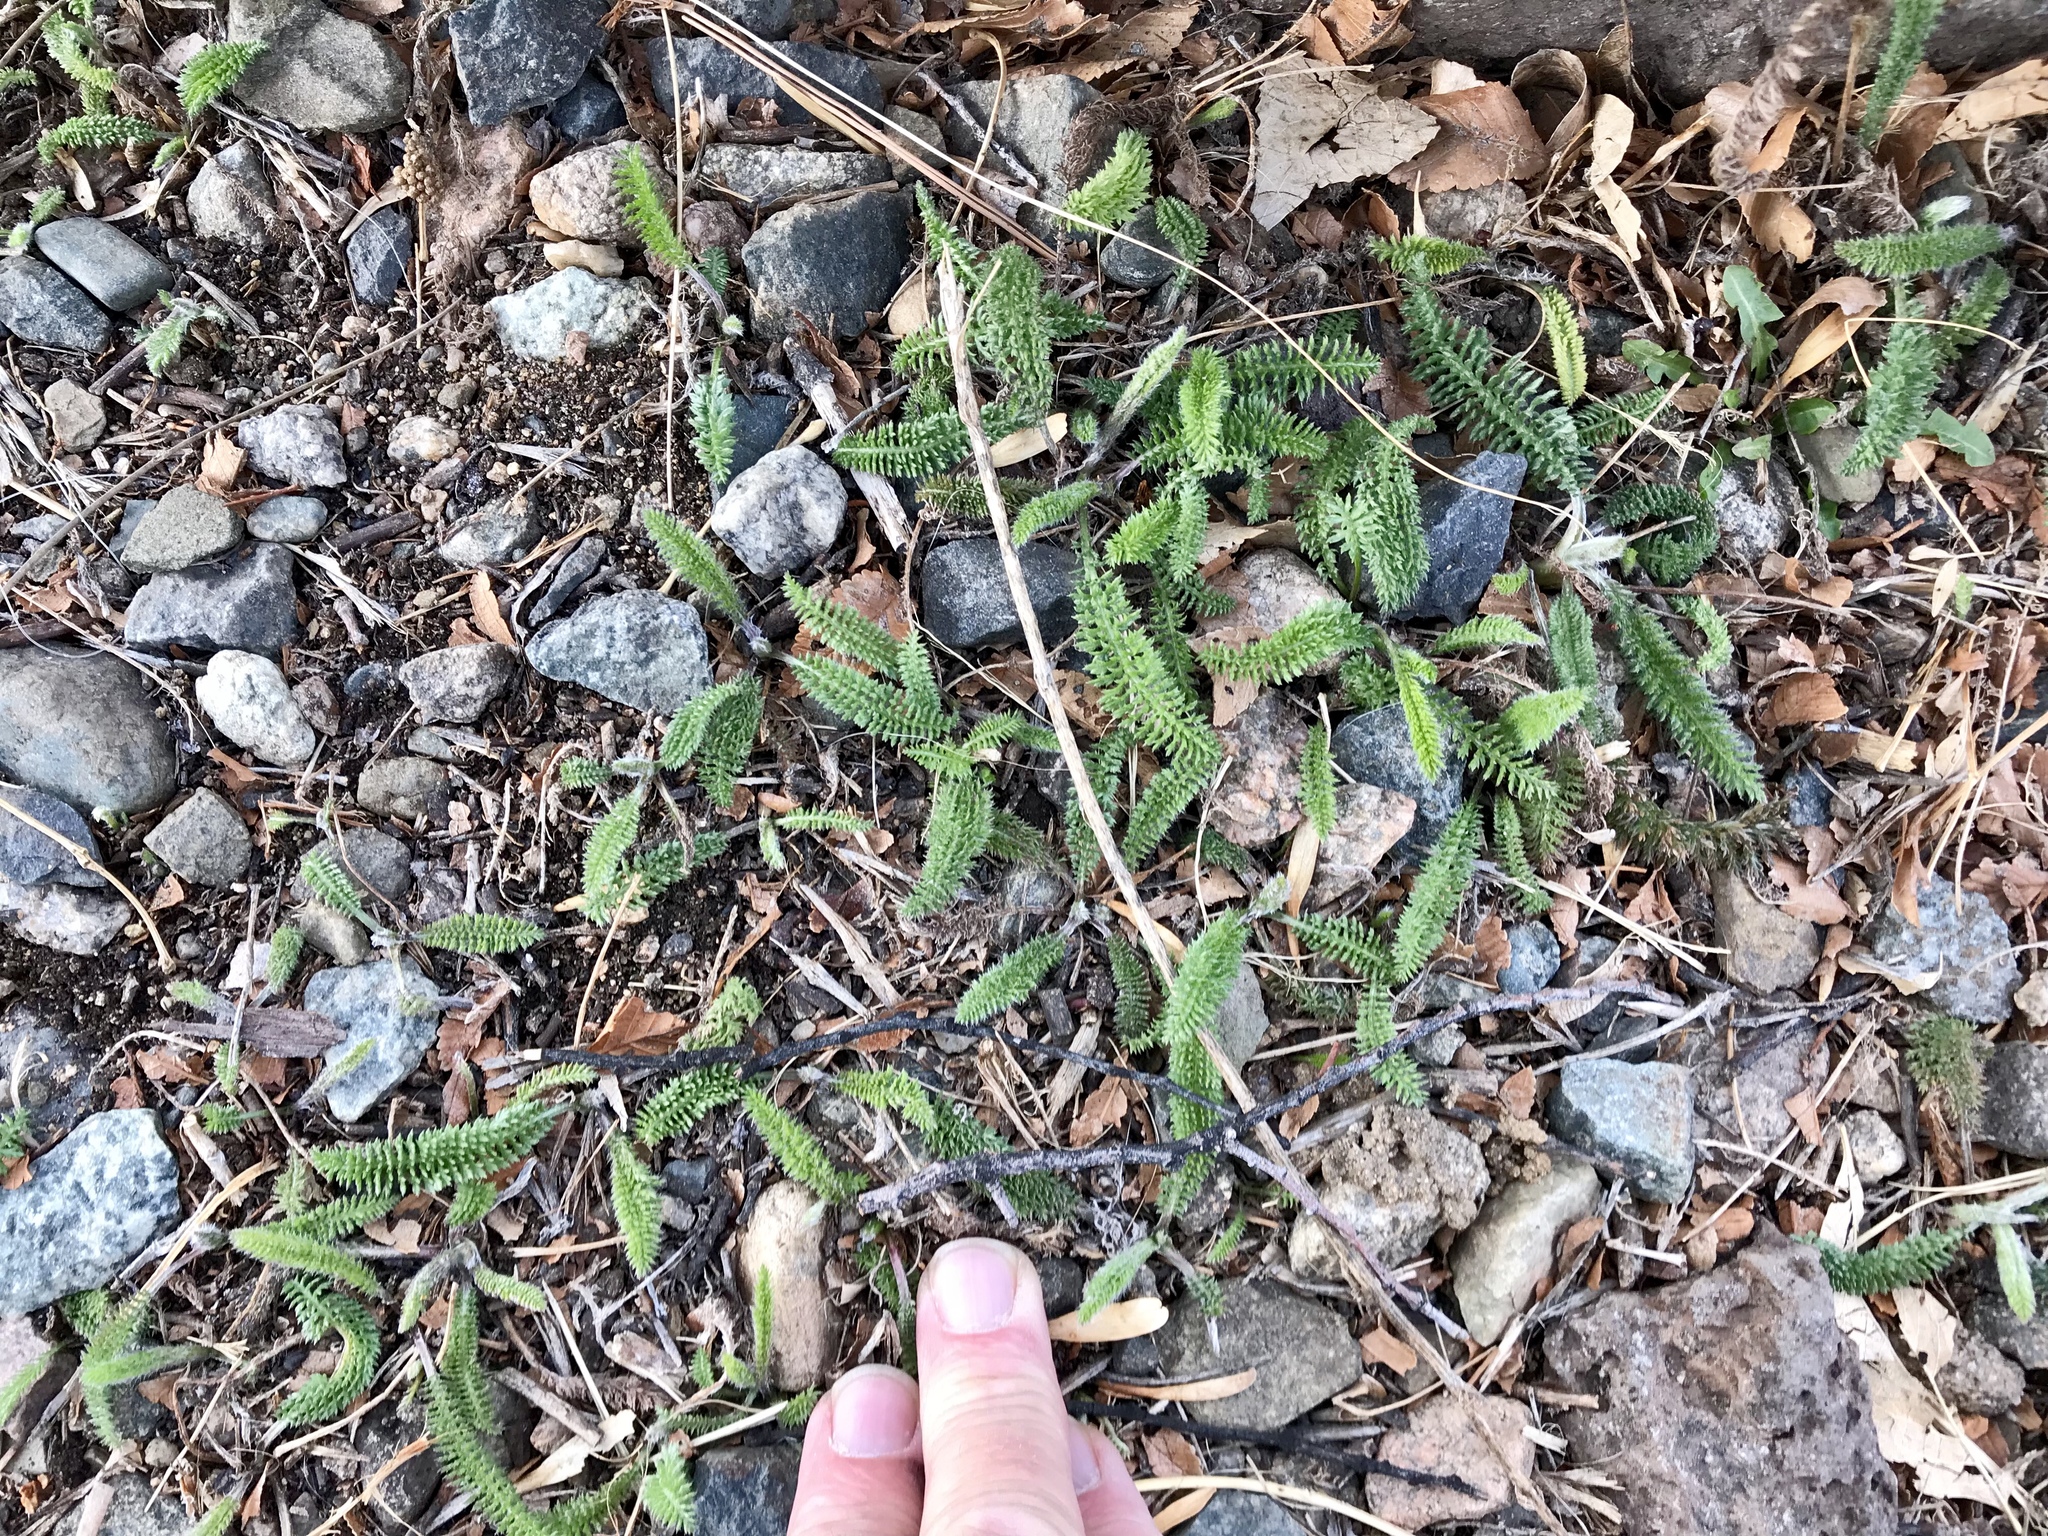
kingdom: Plantae
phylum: Tracheophyta
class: Magnoliopsida
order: Asterales
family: Asteraceae
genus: Achillea
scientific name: Achillea millefolium
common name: Yarrow
